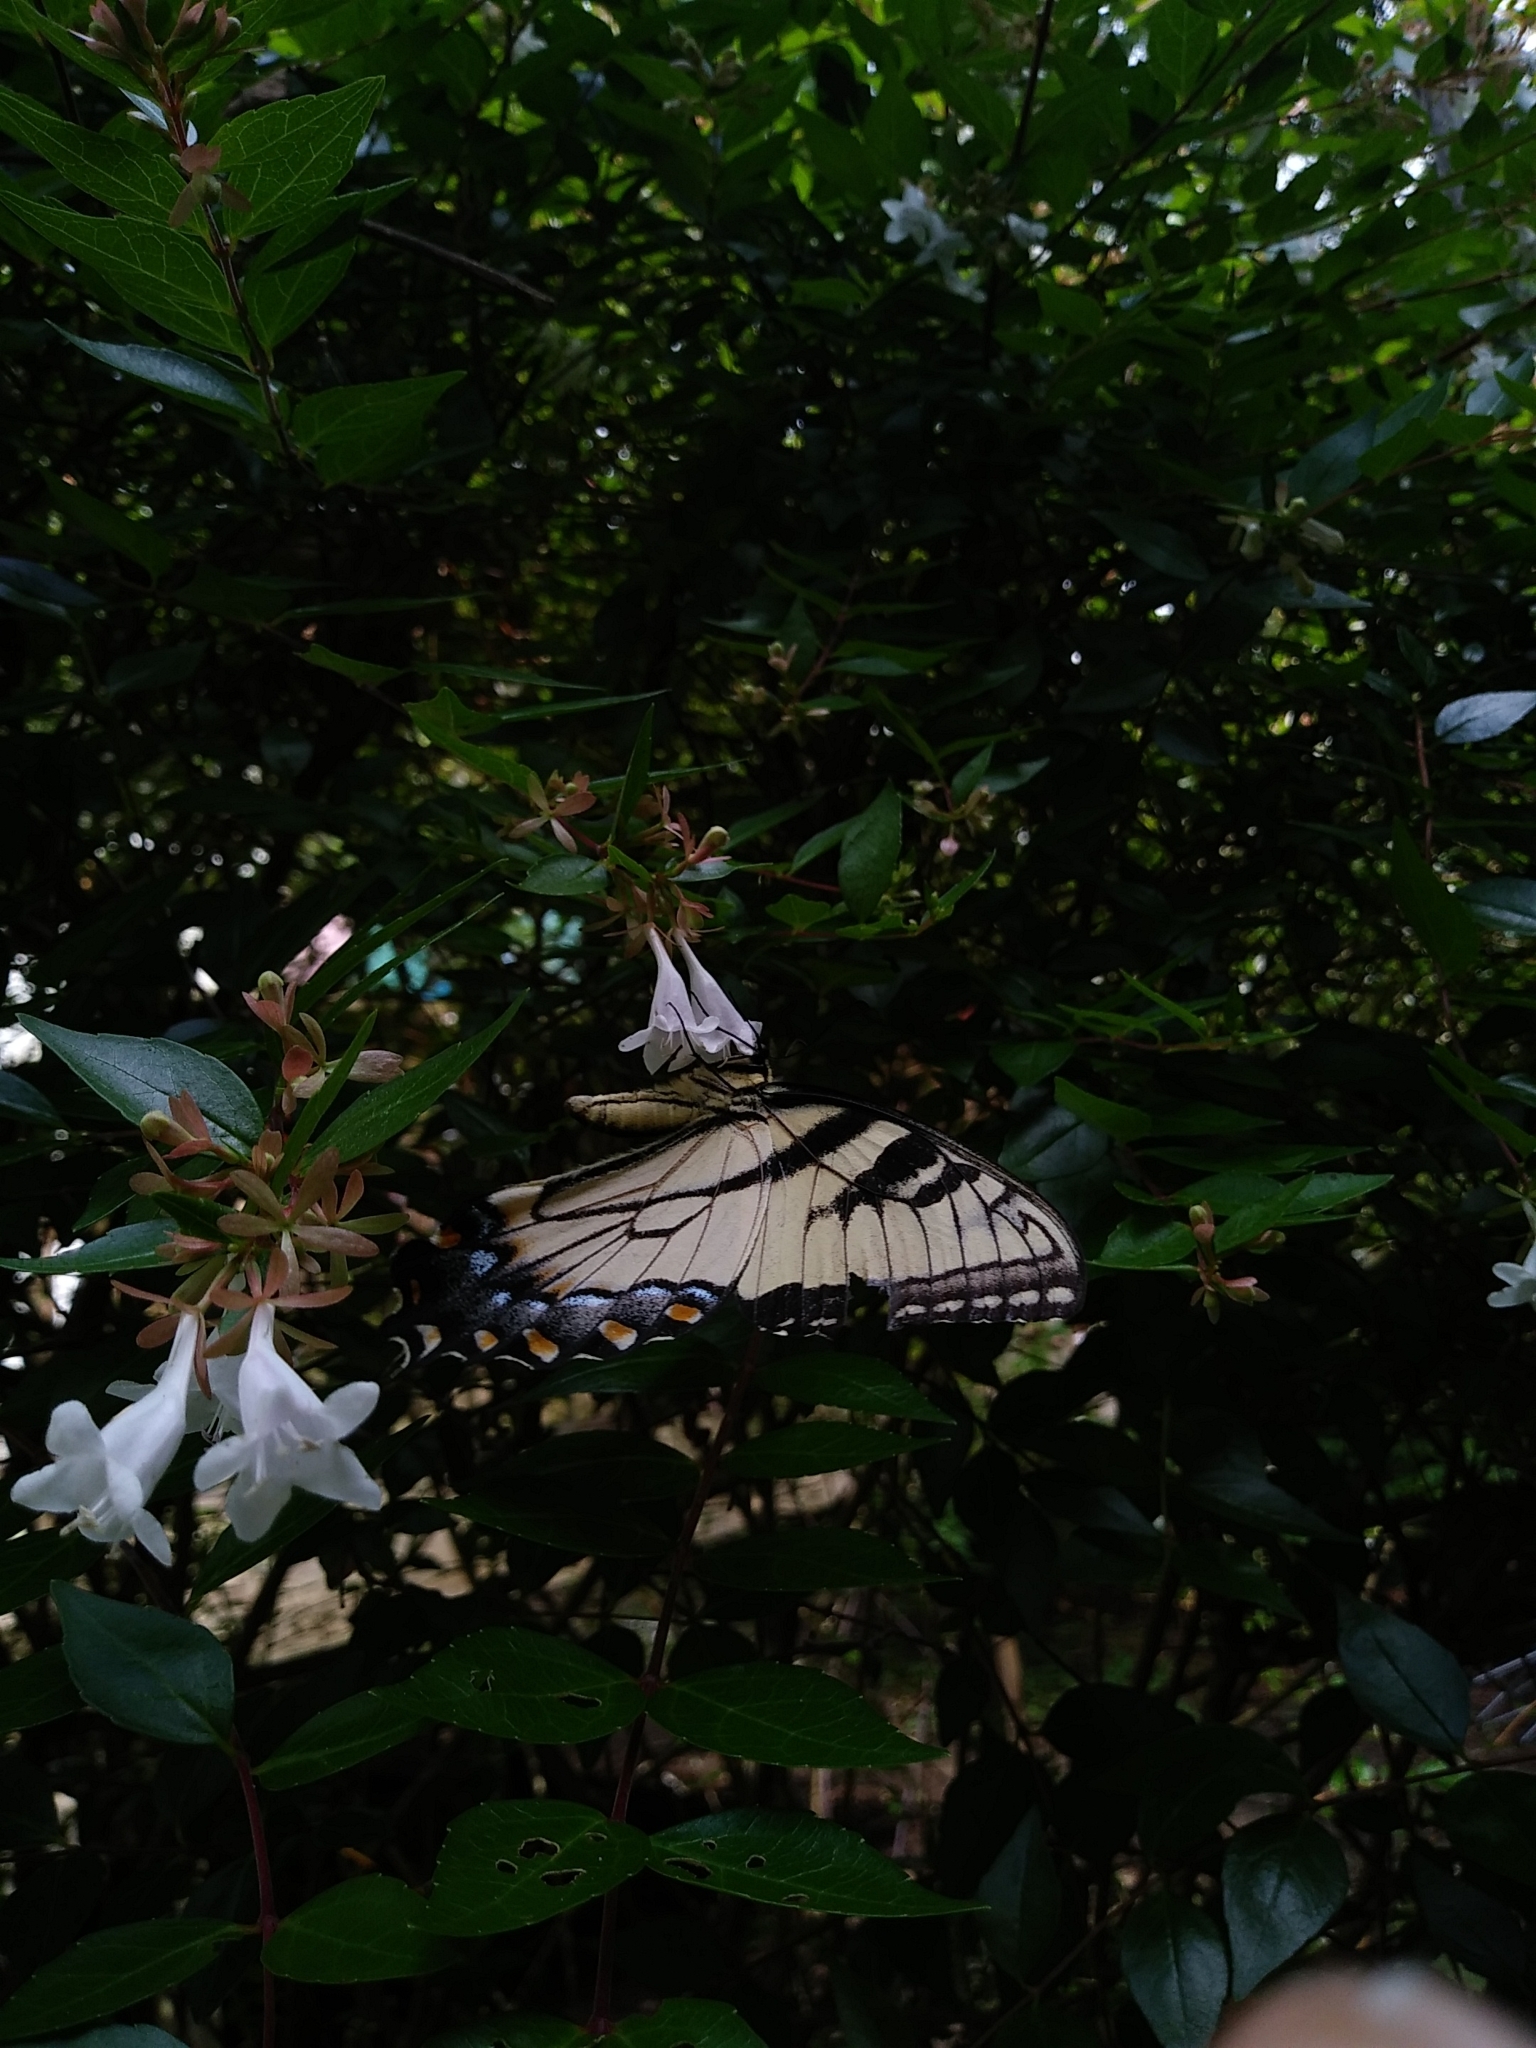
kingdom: Animalia
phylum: Arthropoda
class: Insecta
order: Lepidoptera
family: Papilionidae
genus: Papilio
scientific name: Papilio glaucus
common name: Tiger swallowtail
